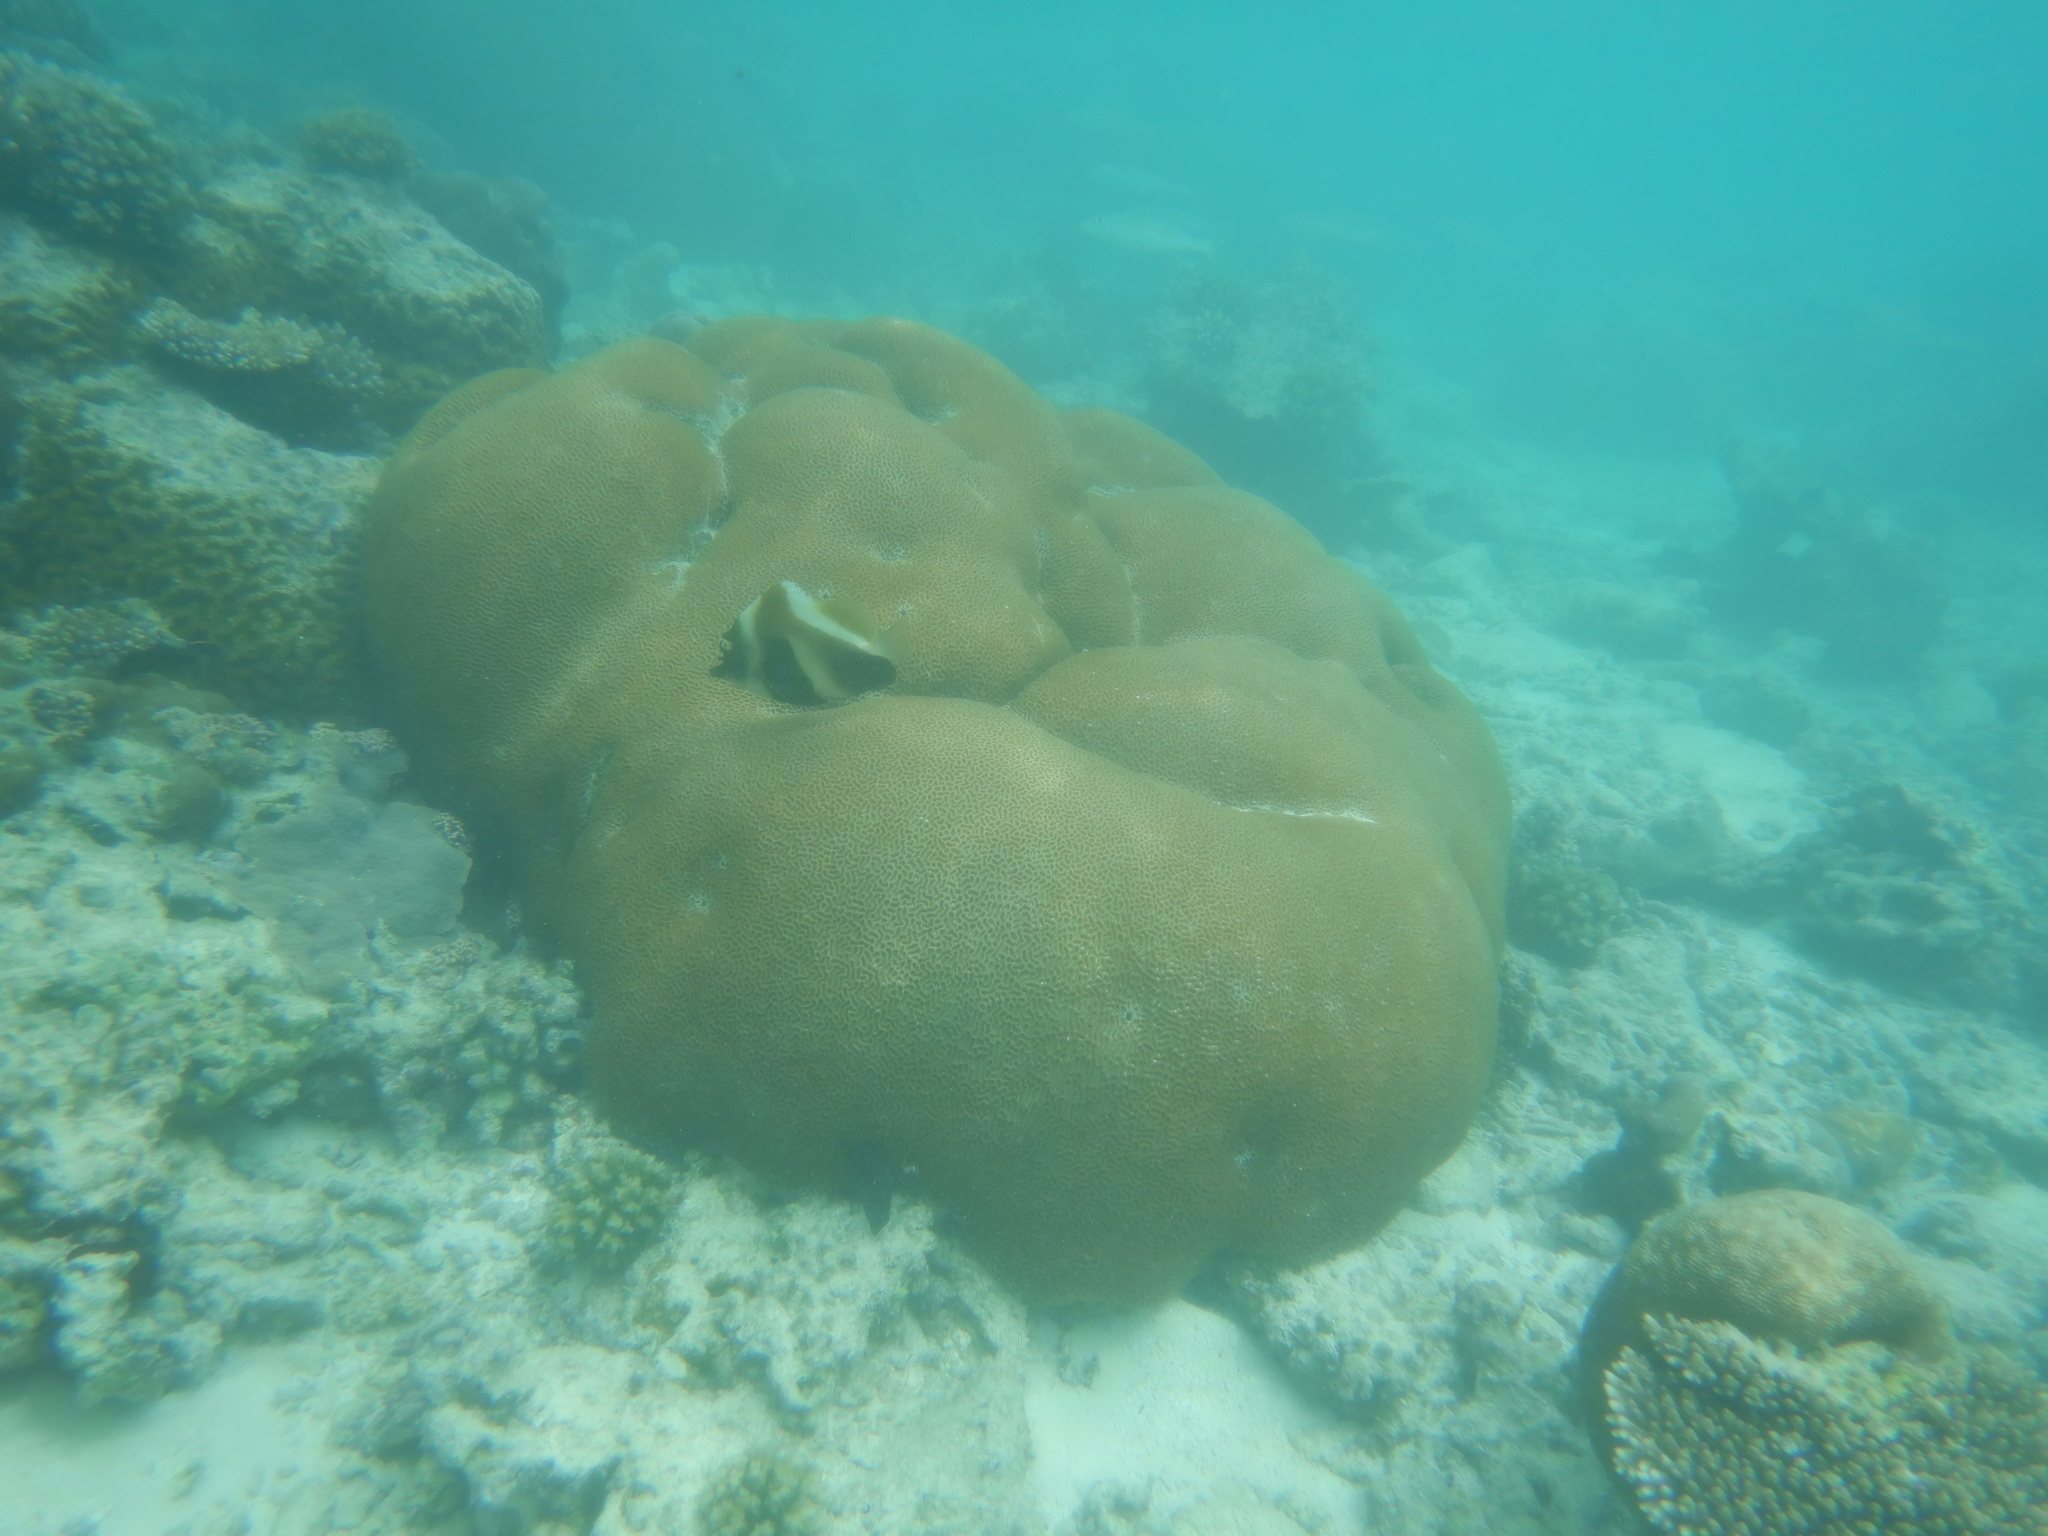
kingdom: Animalia
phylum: Chordata
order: Perciformes
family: Chaetodontidae
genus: Heniochus
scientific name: Heniochus pleurotaenia
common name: Indian ocean bannerfish
